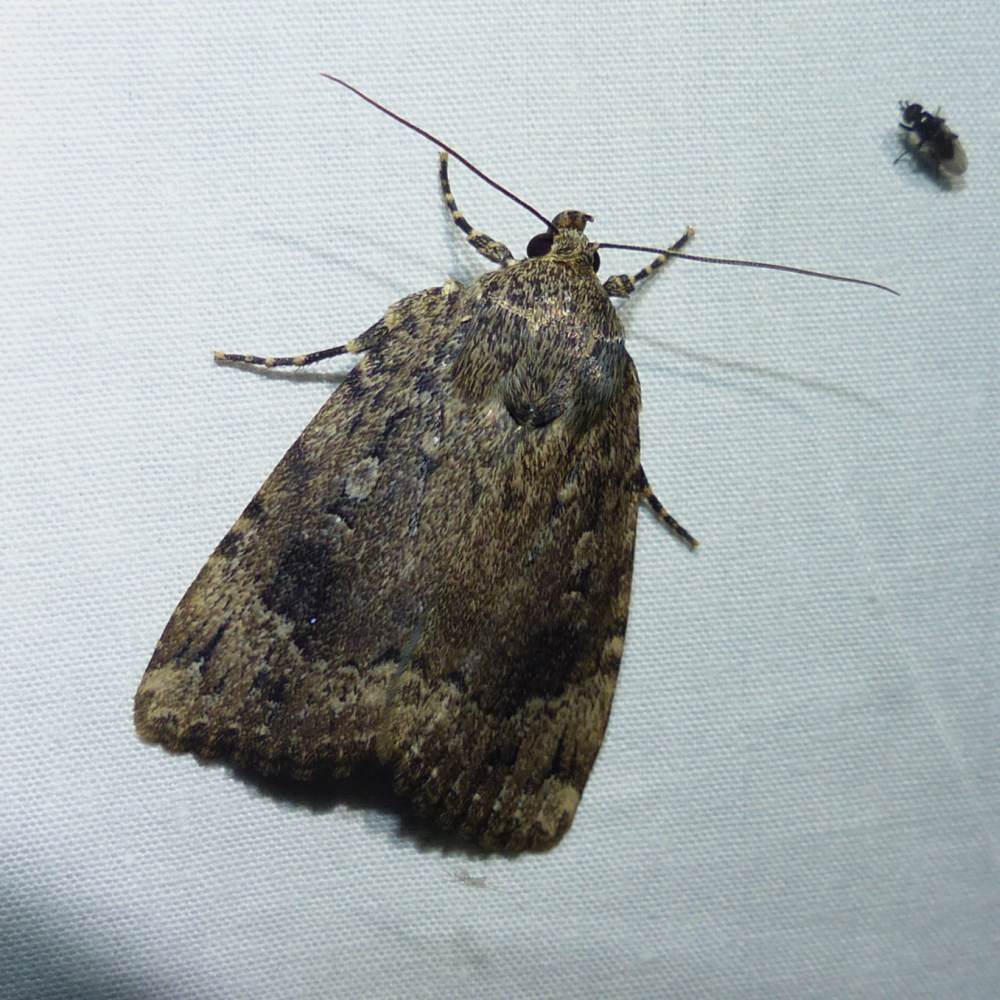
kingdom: Animalia
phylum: Arthropoda
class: Insecta
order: Lepidoptera
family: Noctuidae
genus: Amphipyra
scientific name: Amphipyra pyramidoides
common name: American copper underwing
